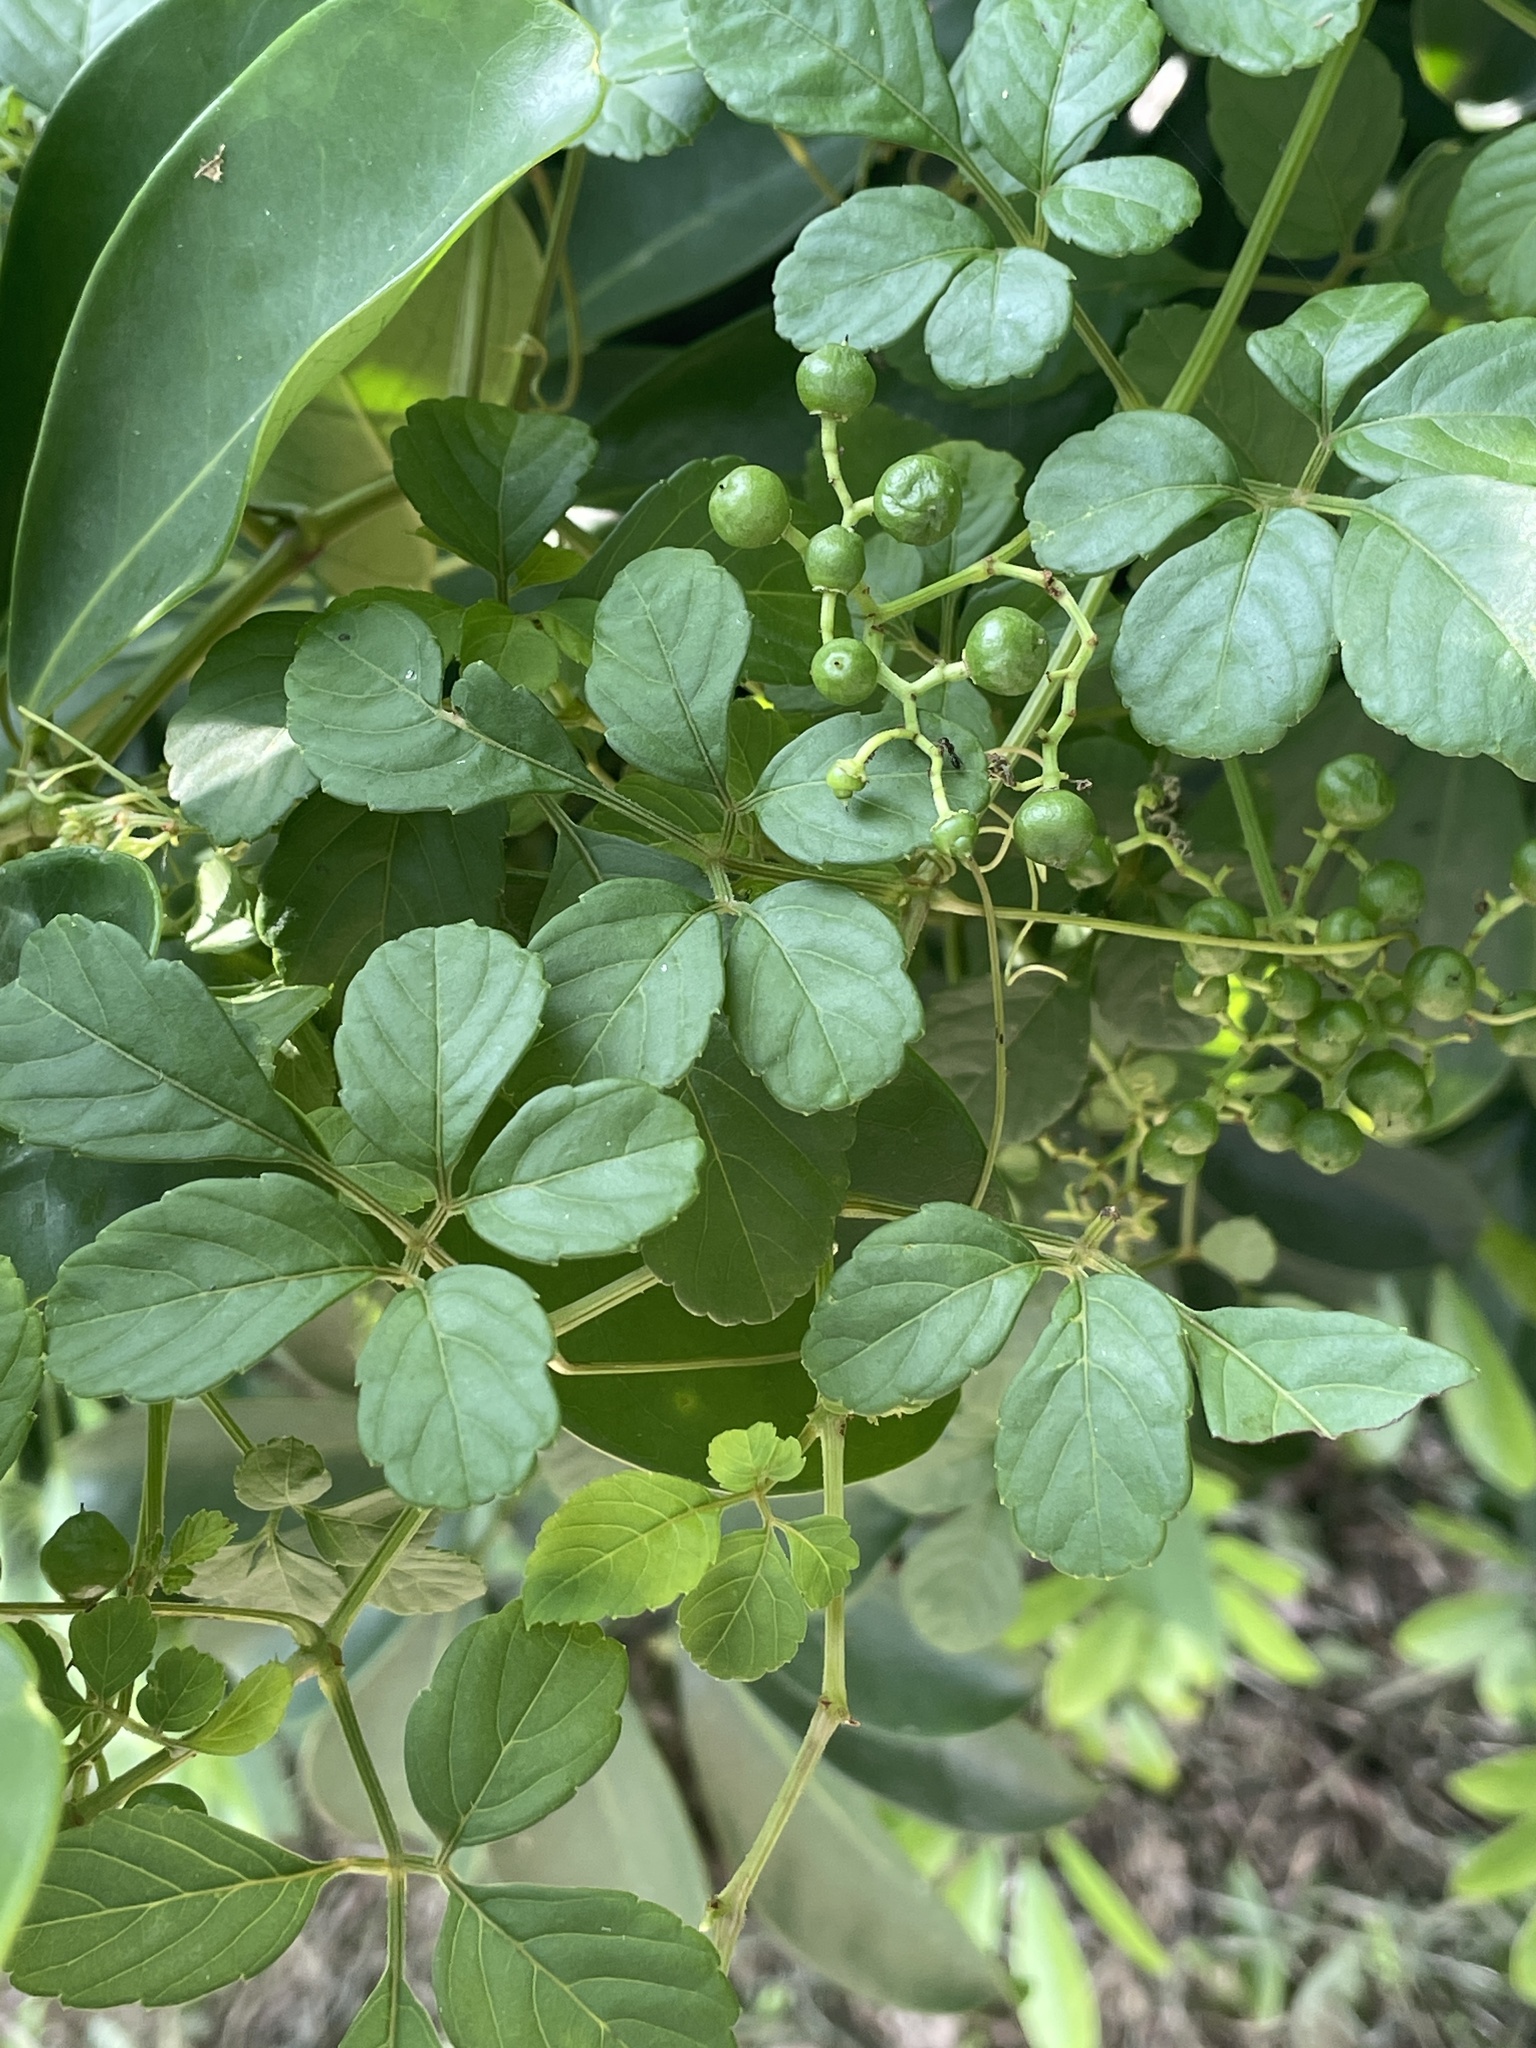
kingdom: Plantae
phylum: Tracheophyta
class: Magnoliopsida
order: Vitales
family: Vitaceae
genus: Causonis
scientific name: Causonis japonica
